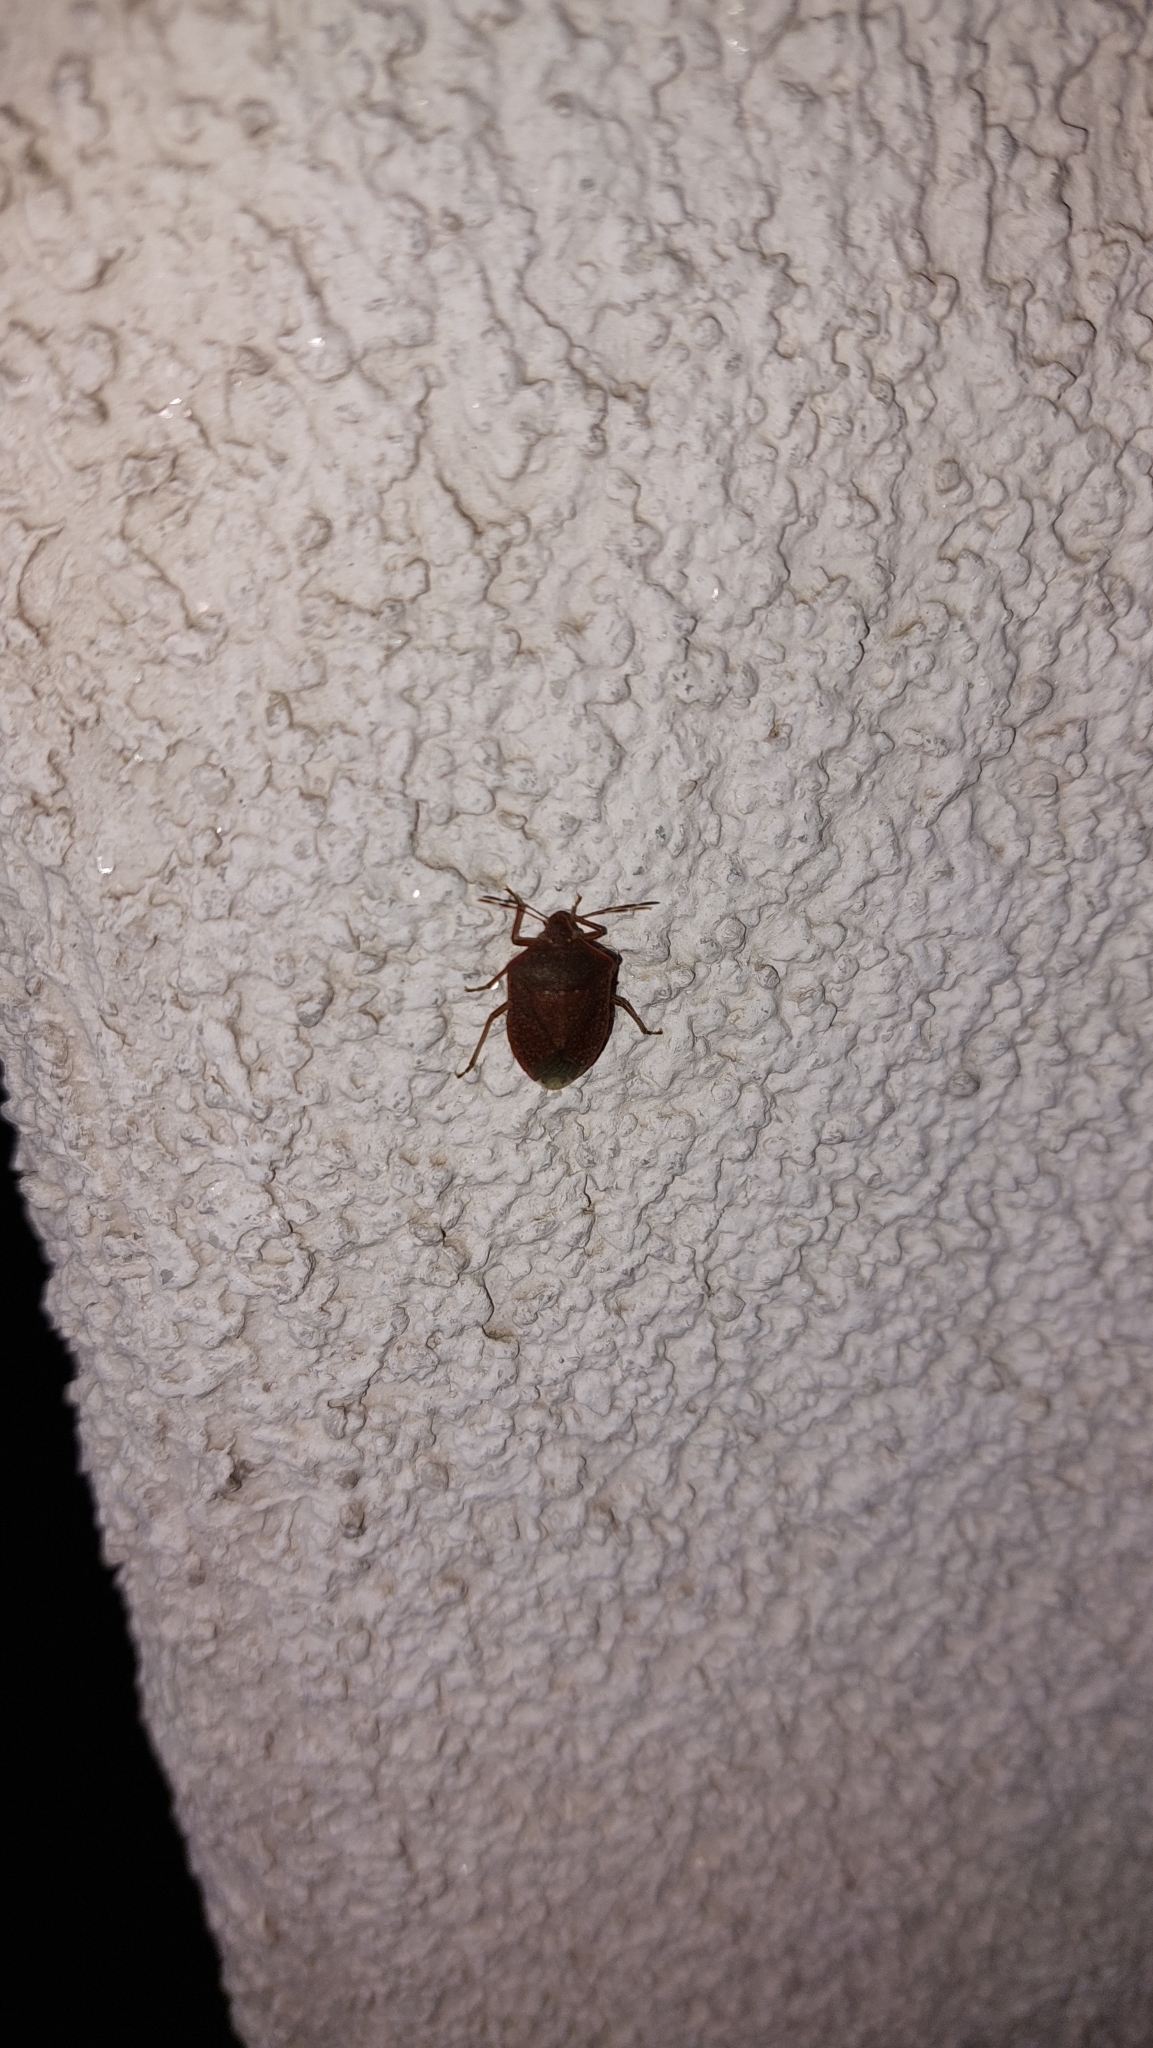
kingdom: Animalia
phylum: Arthropoda
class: Insecta
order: Hemiptera
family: Pentatomidae
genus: Nezara
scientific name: Nezara viridula
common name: Southern green stink bug
